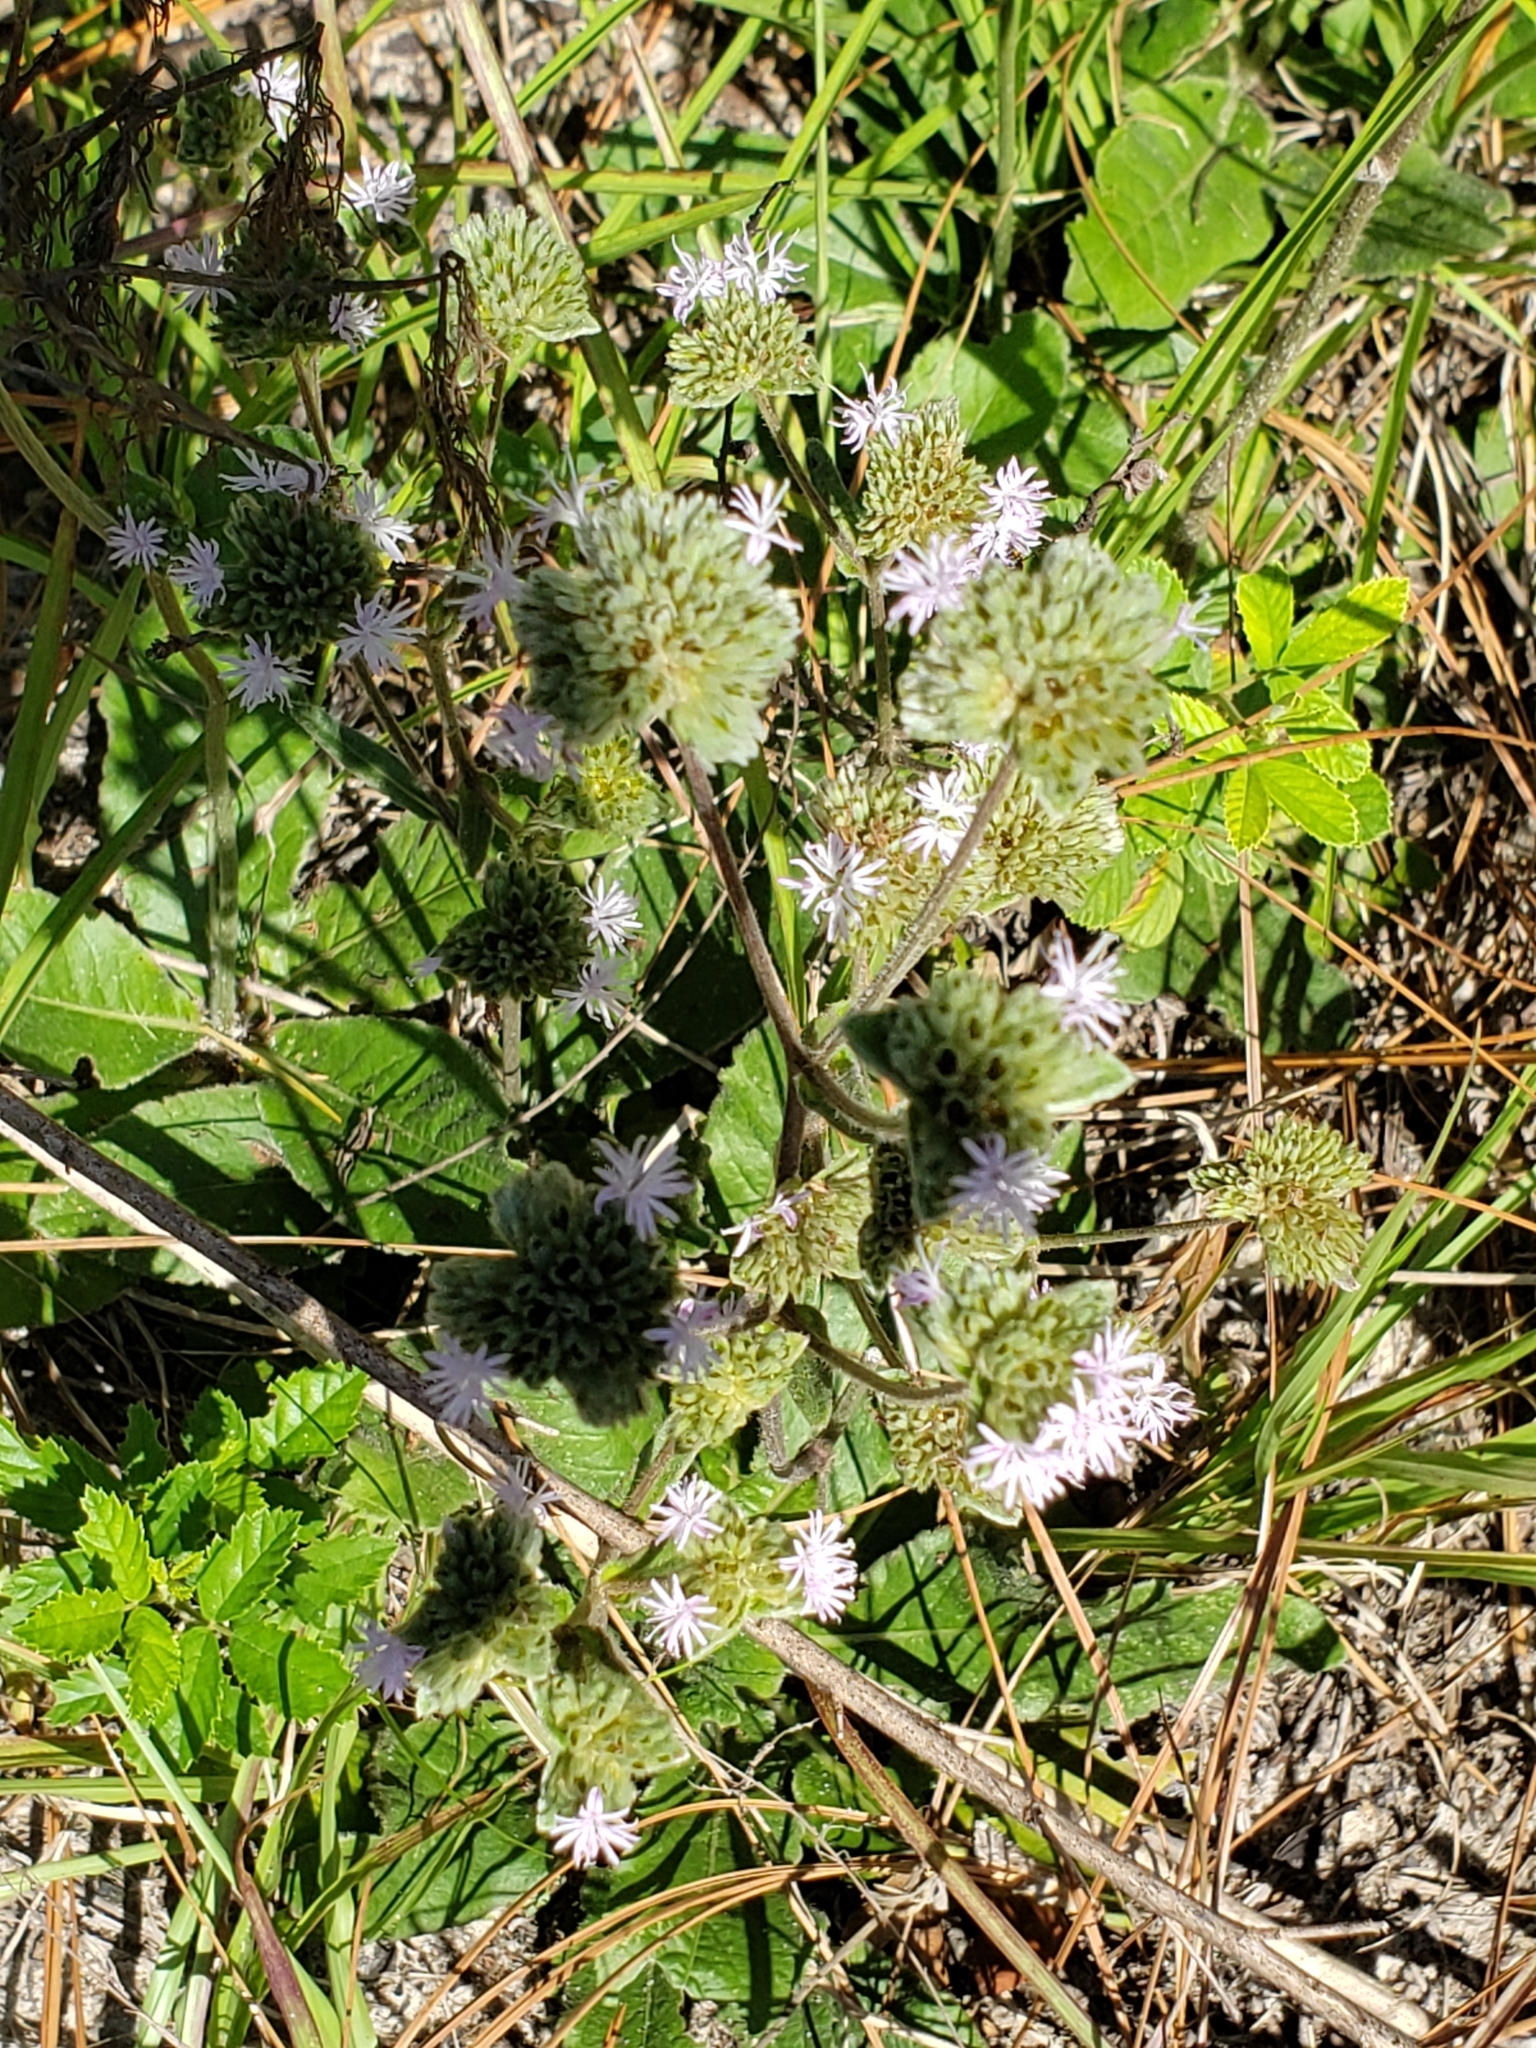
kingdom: Plantae
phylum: Tracheophyta
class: Magnoliopsida
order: Asterales
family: Asteraceae
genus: Elephantopus
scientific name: Elephantopus elatus
